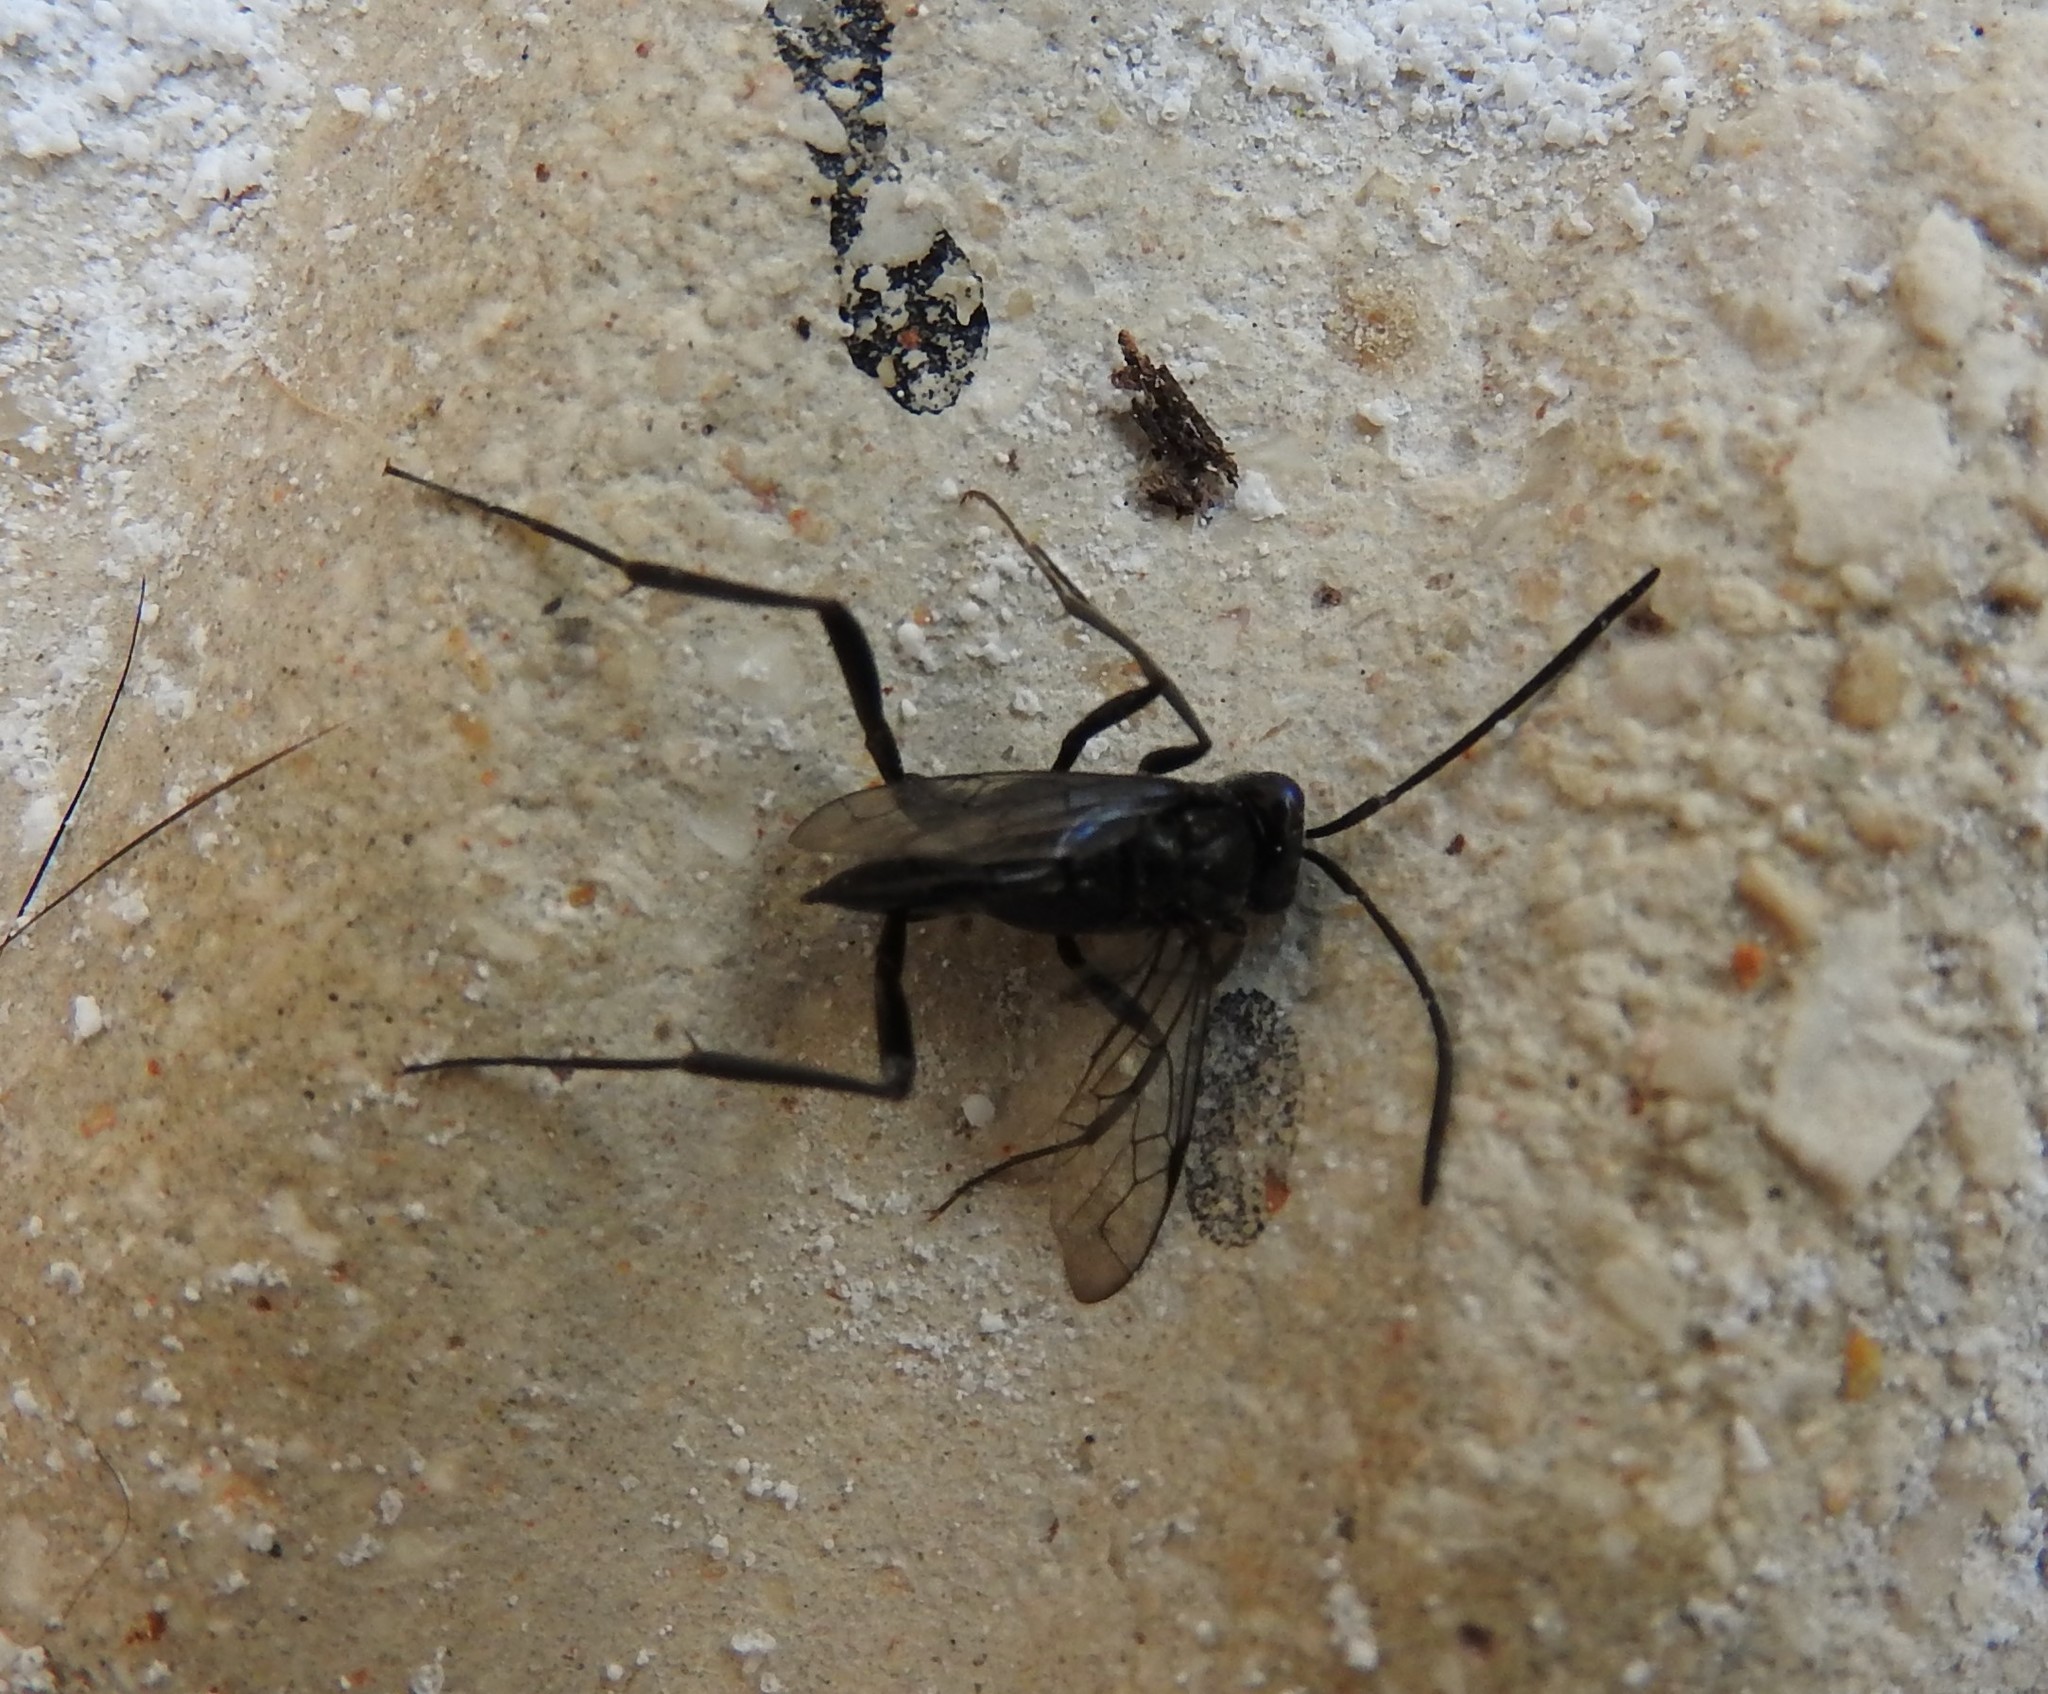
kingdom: Animalia
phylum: Arthropoda
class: Insecta
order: Hymenoptera
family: Evaniidae
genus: Evania
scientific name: Evania appendigaster
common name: Ensign wasp
